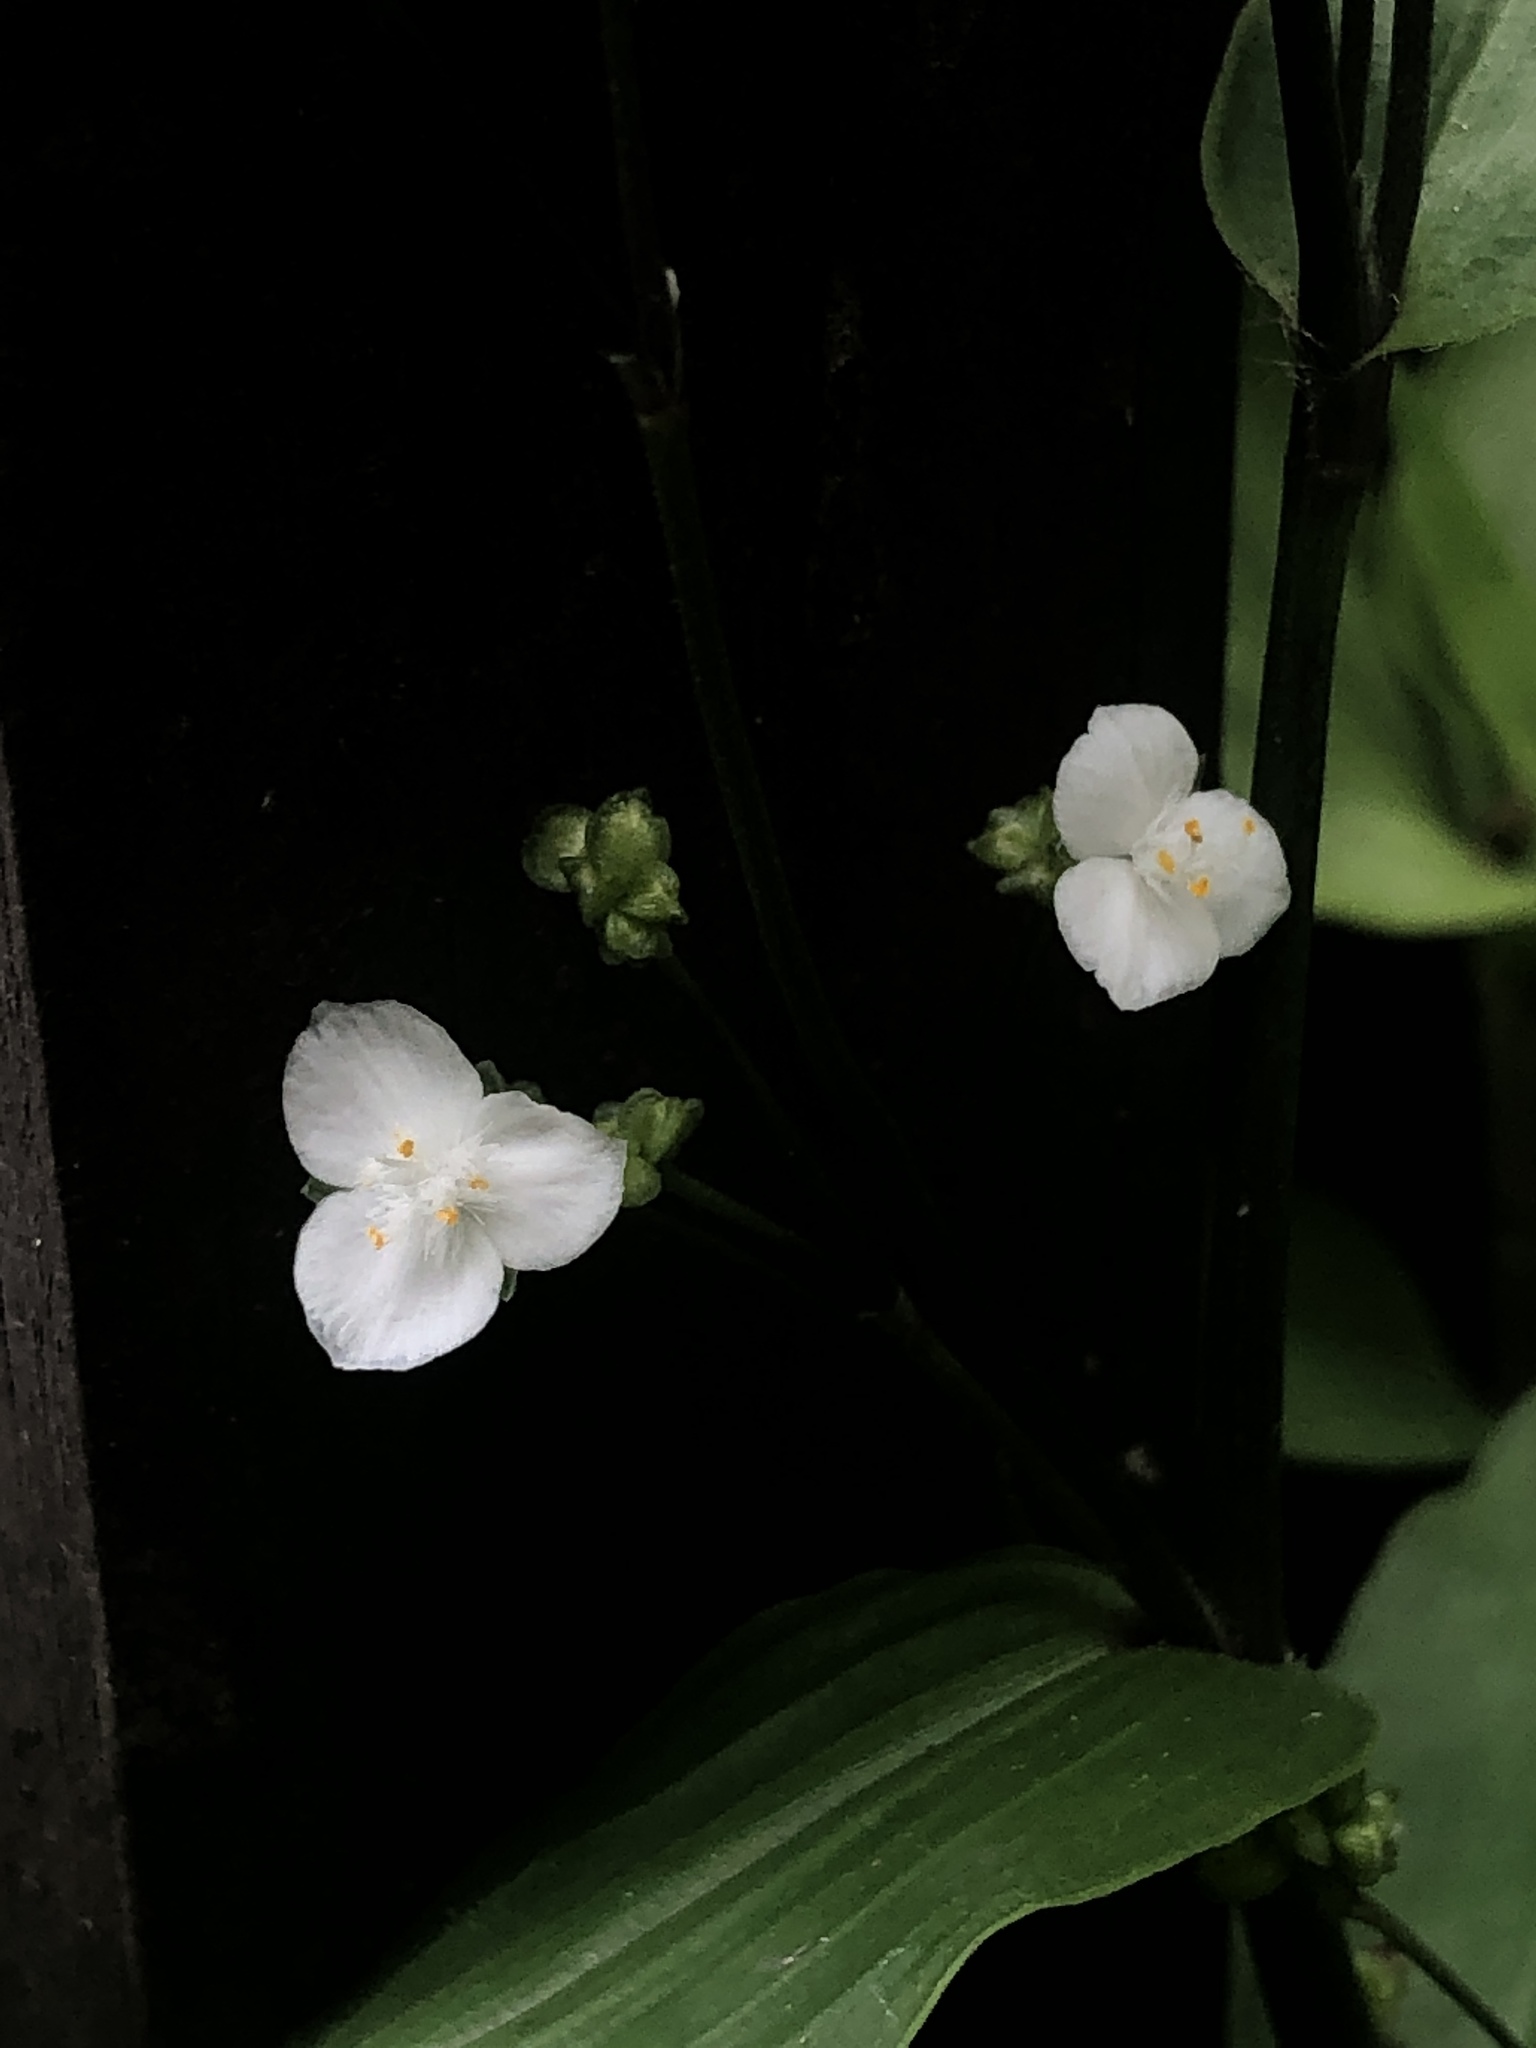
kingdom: Plantae
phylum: Tracheophyta
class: Liliopsida
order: Commelinales
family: Commelinaceae
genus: Gibasis
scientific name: Gibasis geniculata
